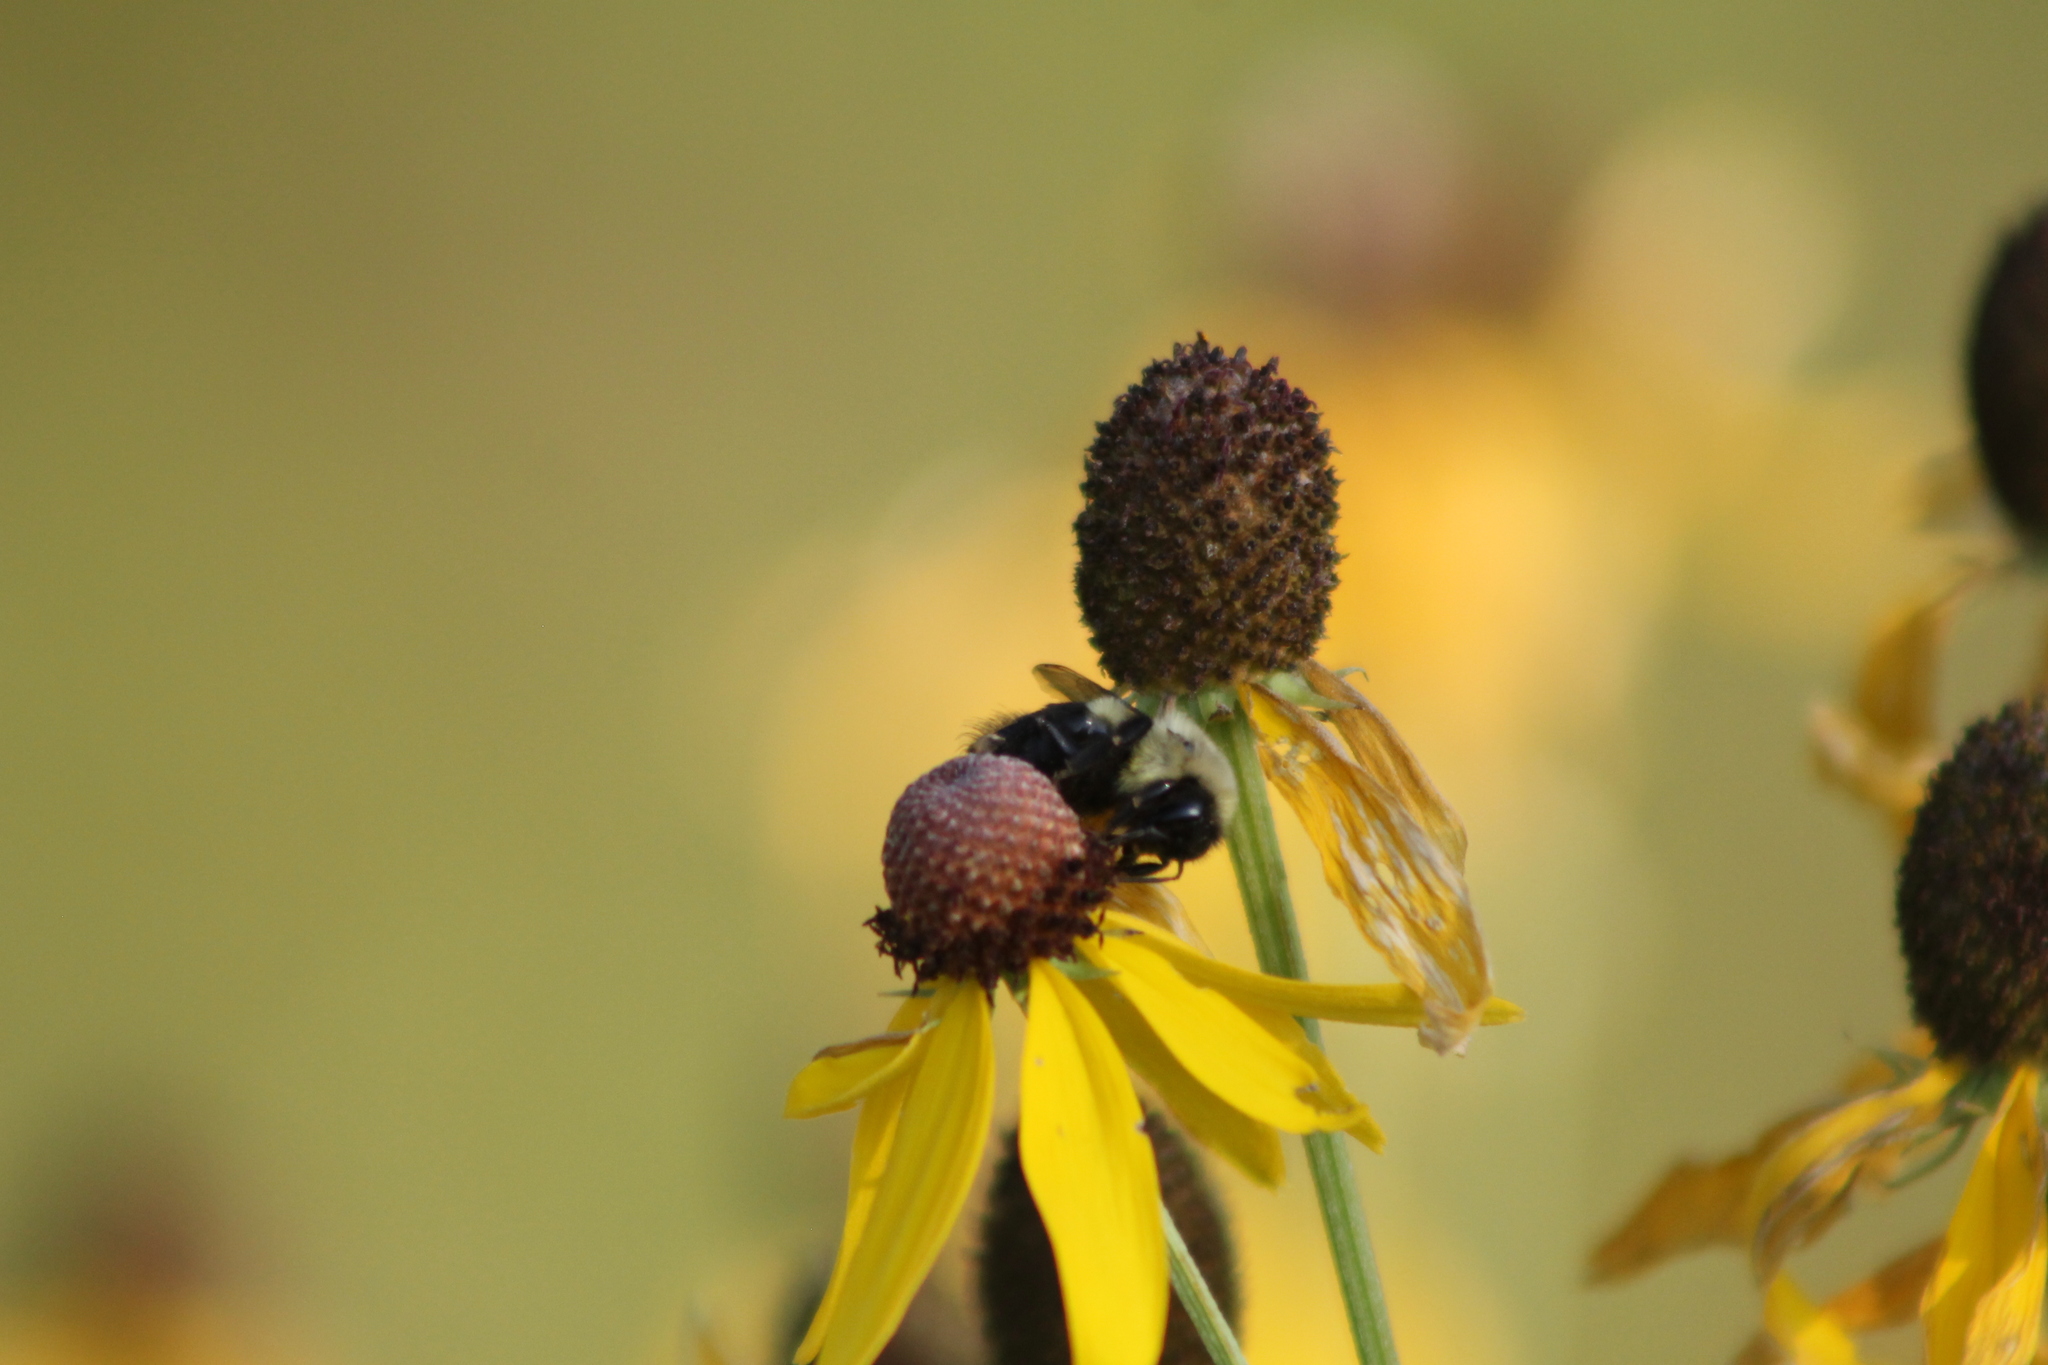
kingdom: Animalia
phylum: Arthropoda
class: Insecta
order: Hymenoptera
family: Apidae
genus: Bombus
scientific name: Bombus impatiens
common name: Common eastern bumble bee
